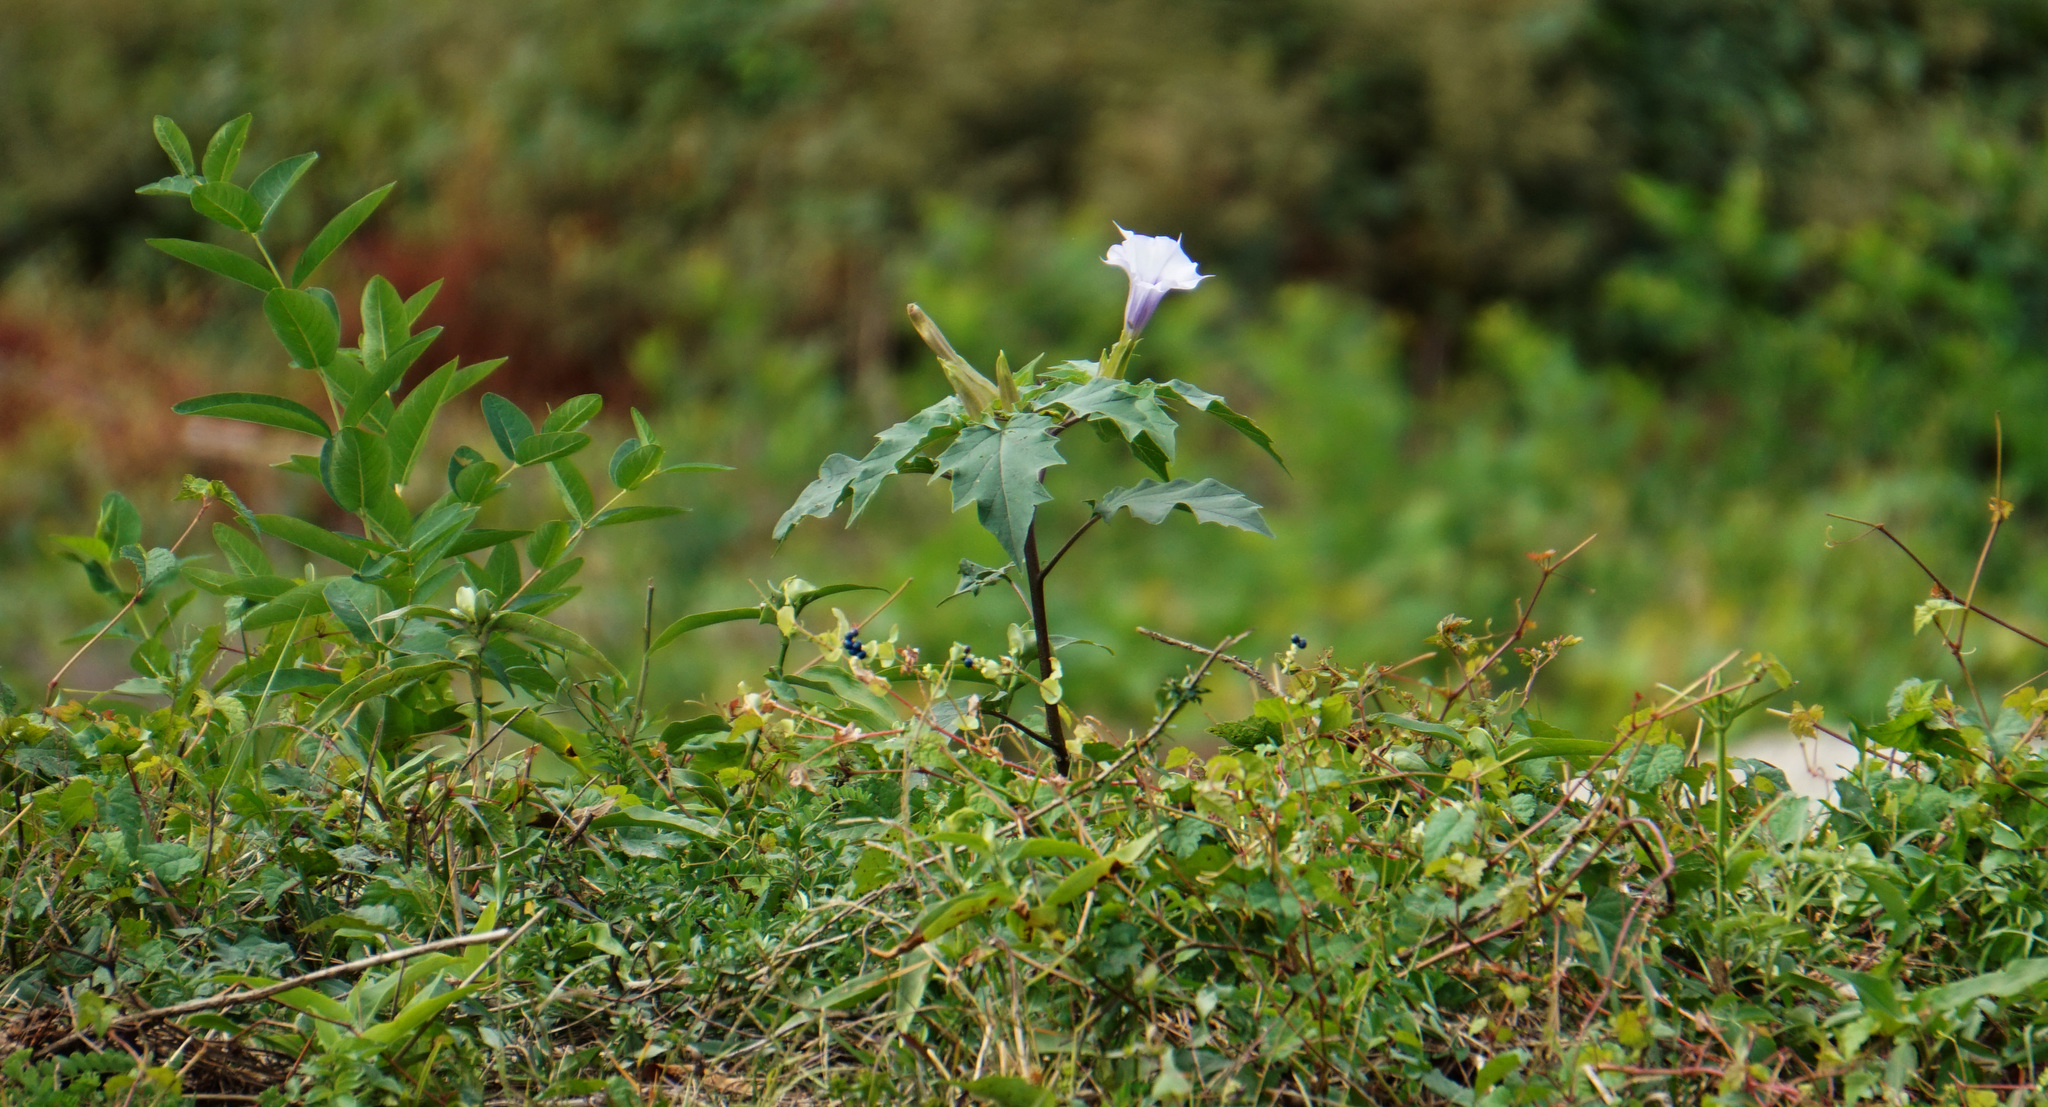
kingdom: Plantae
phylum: Tracheophyta
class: Magnoliopsida
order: Solanales
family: Solanaceae
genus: Datura
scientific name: Datura stramonium
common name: Thorn-apple
